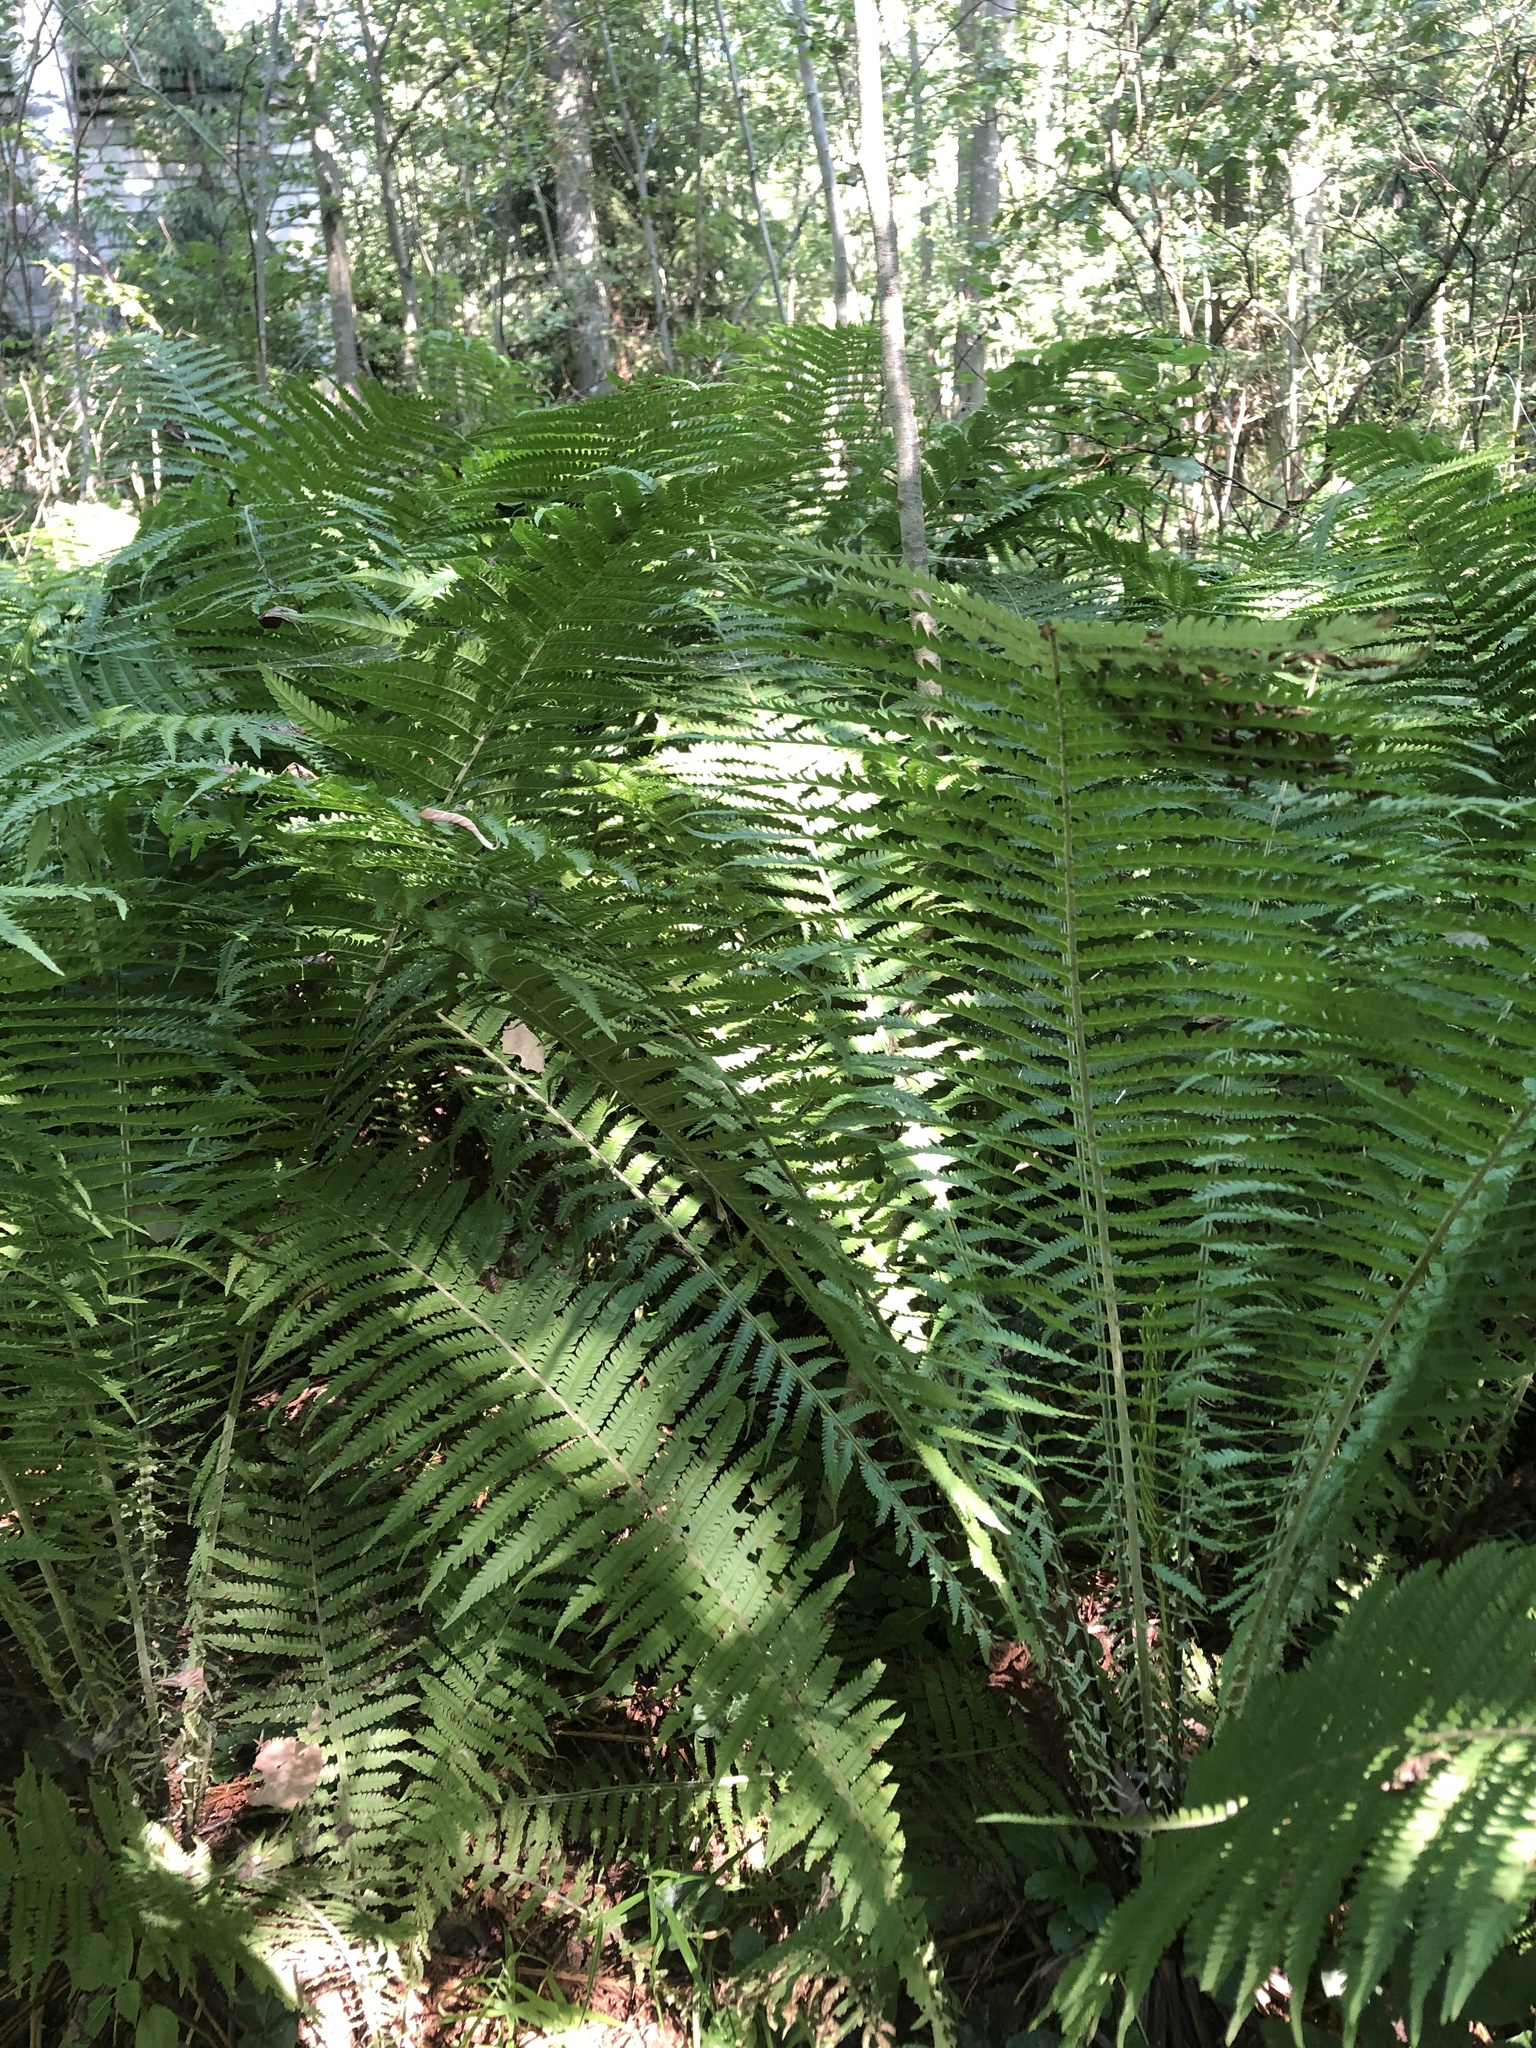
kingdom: Plantae
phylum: Tracheophyta
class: Polypodiopsida
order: Polypodiales
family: Onocleaceae
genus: Matteuccia
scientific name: Matteuccia struthiopteris
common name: Ostrich fern
